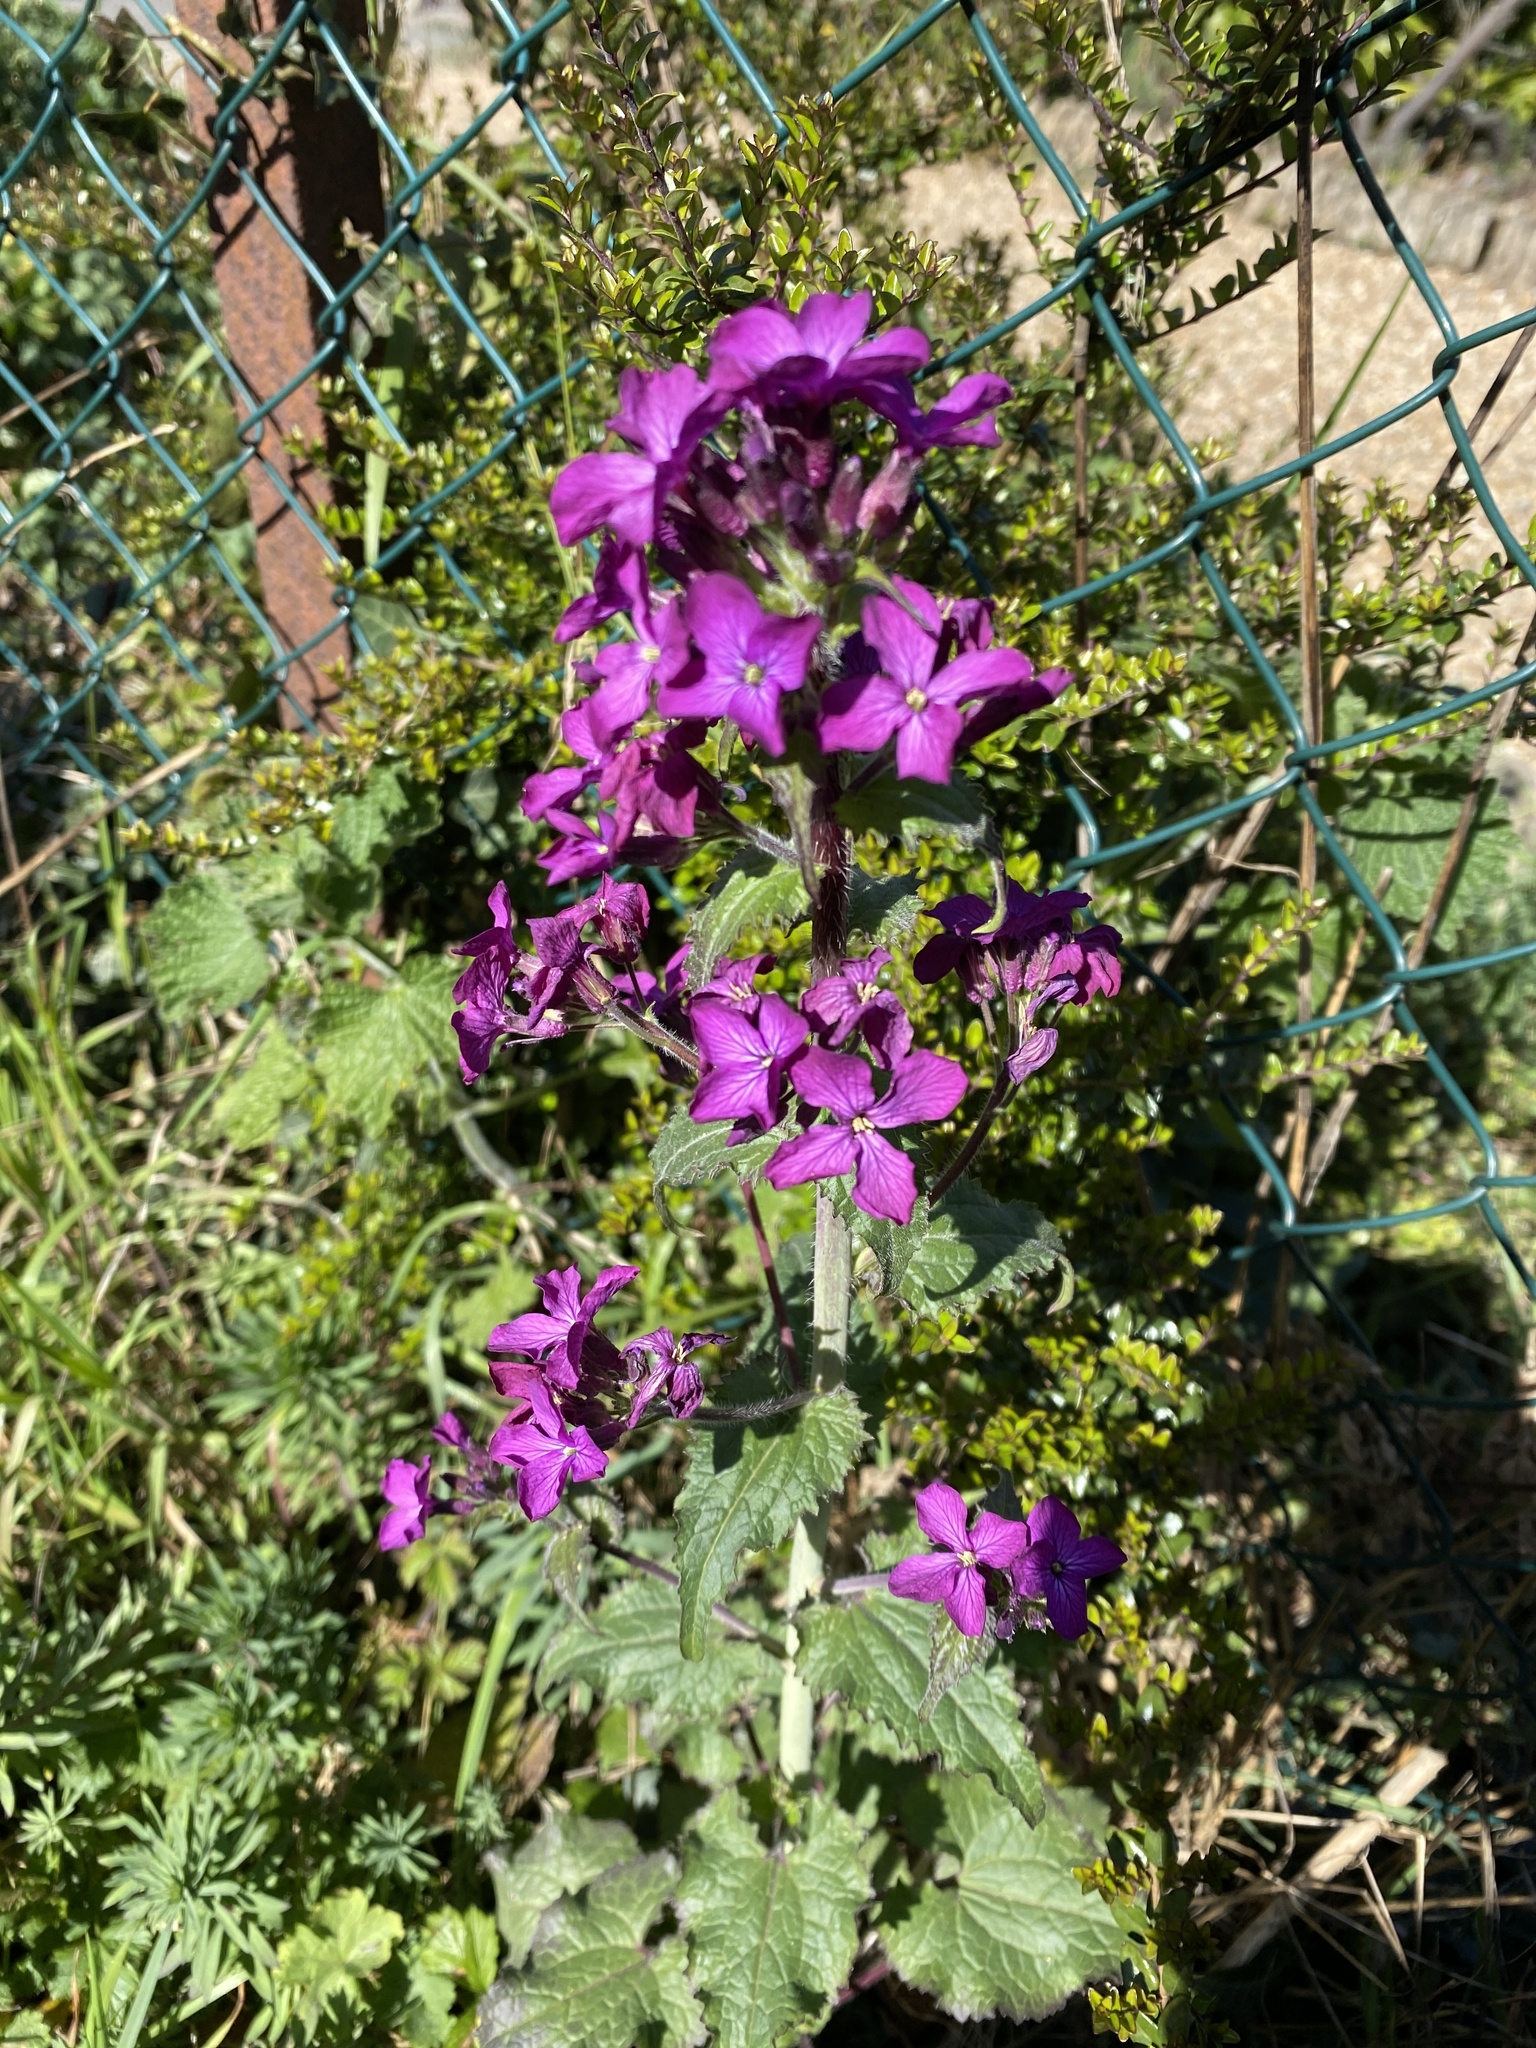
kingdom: Plantae
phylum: Tracheophyta
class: Magnoliopsida
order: Brassicales
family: Brassicaceae
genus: Lunaria
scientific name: Lunaria annua
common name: Honesty
